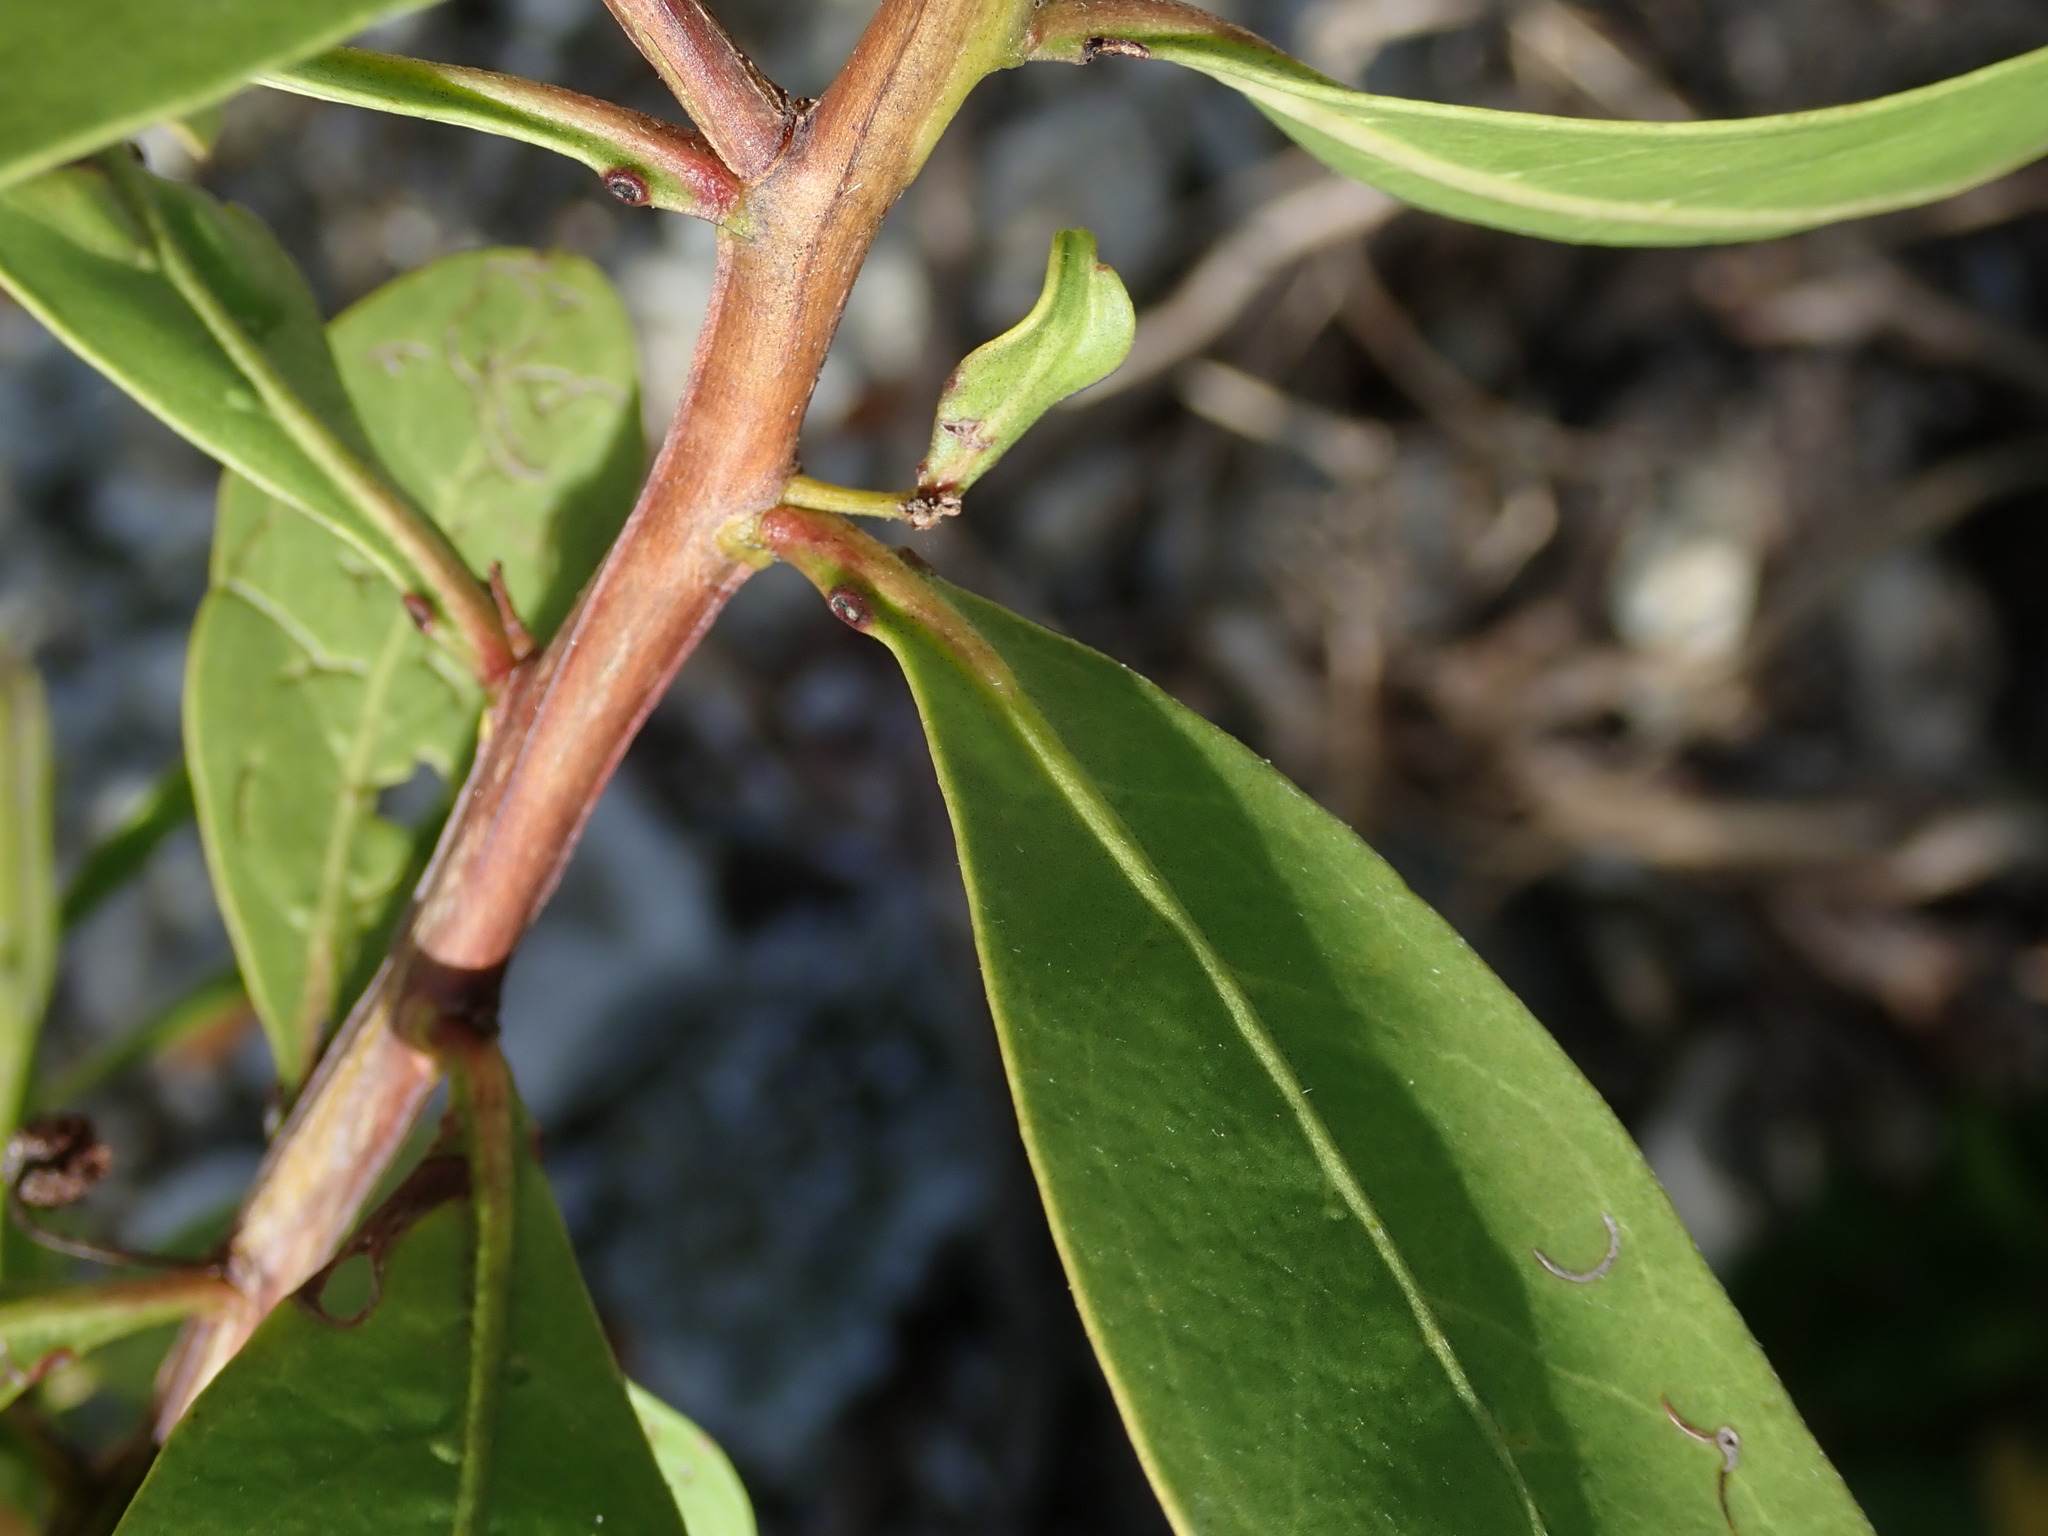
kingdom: Plantae
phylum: Tracheophyta
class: Magnoliopsida
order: Myrtales
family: Combretaceae
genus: Conocarpus
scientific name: Conocarpus erectus
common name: Button mangrove
